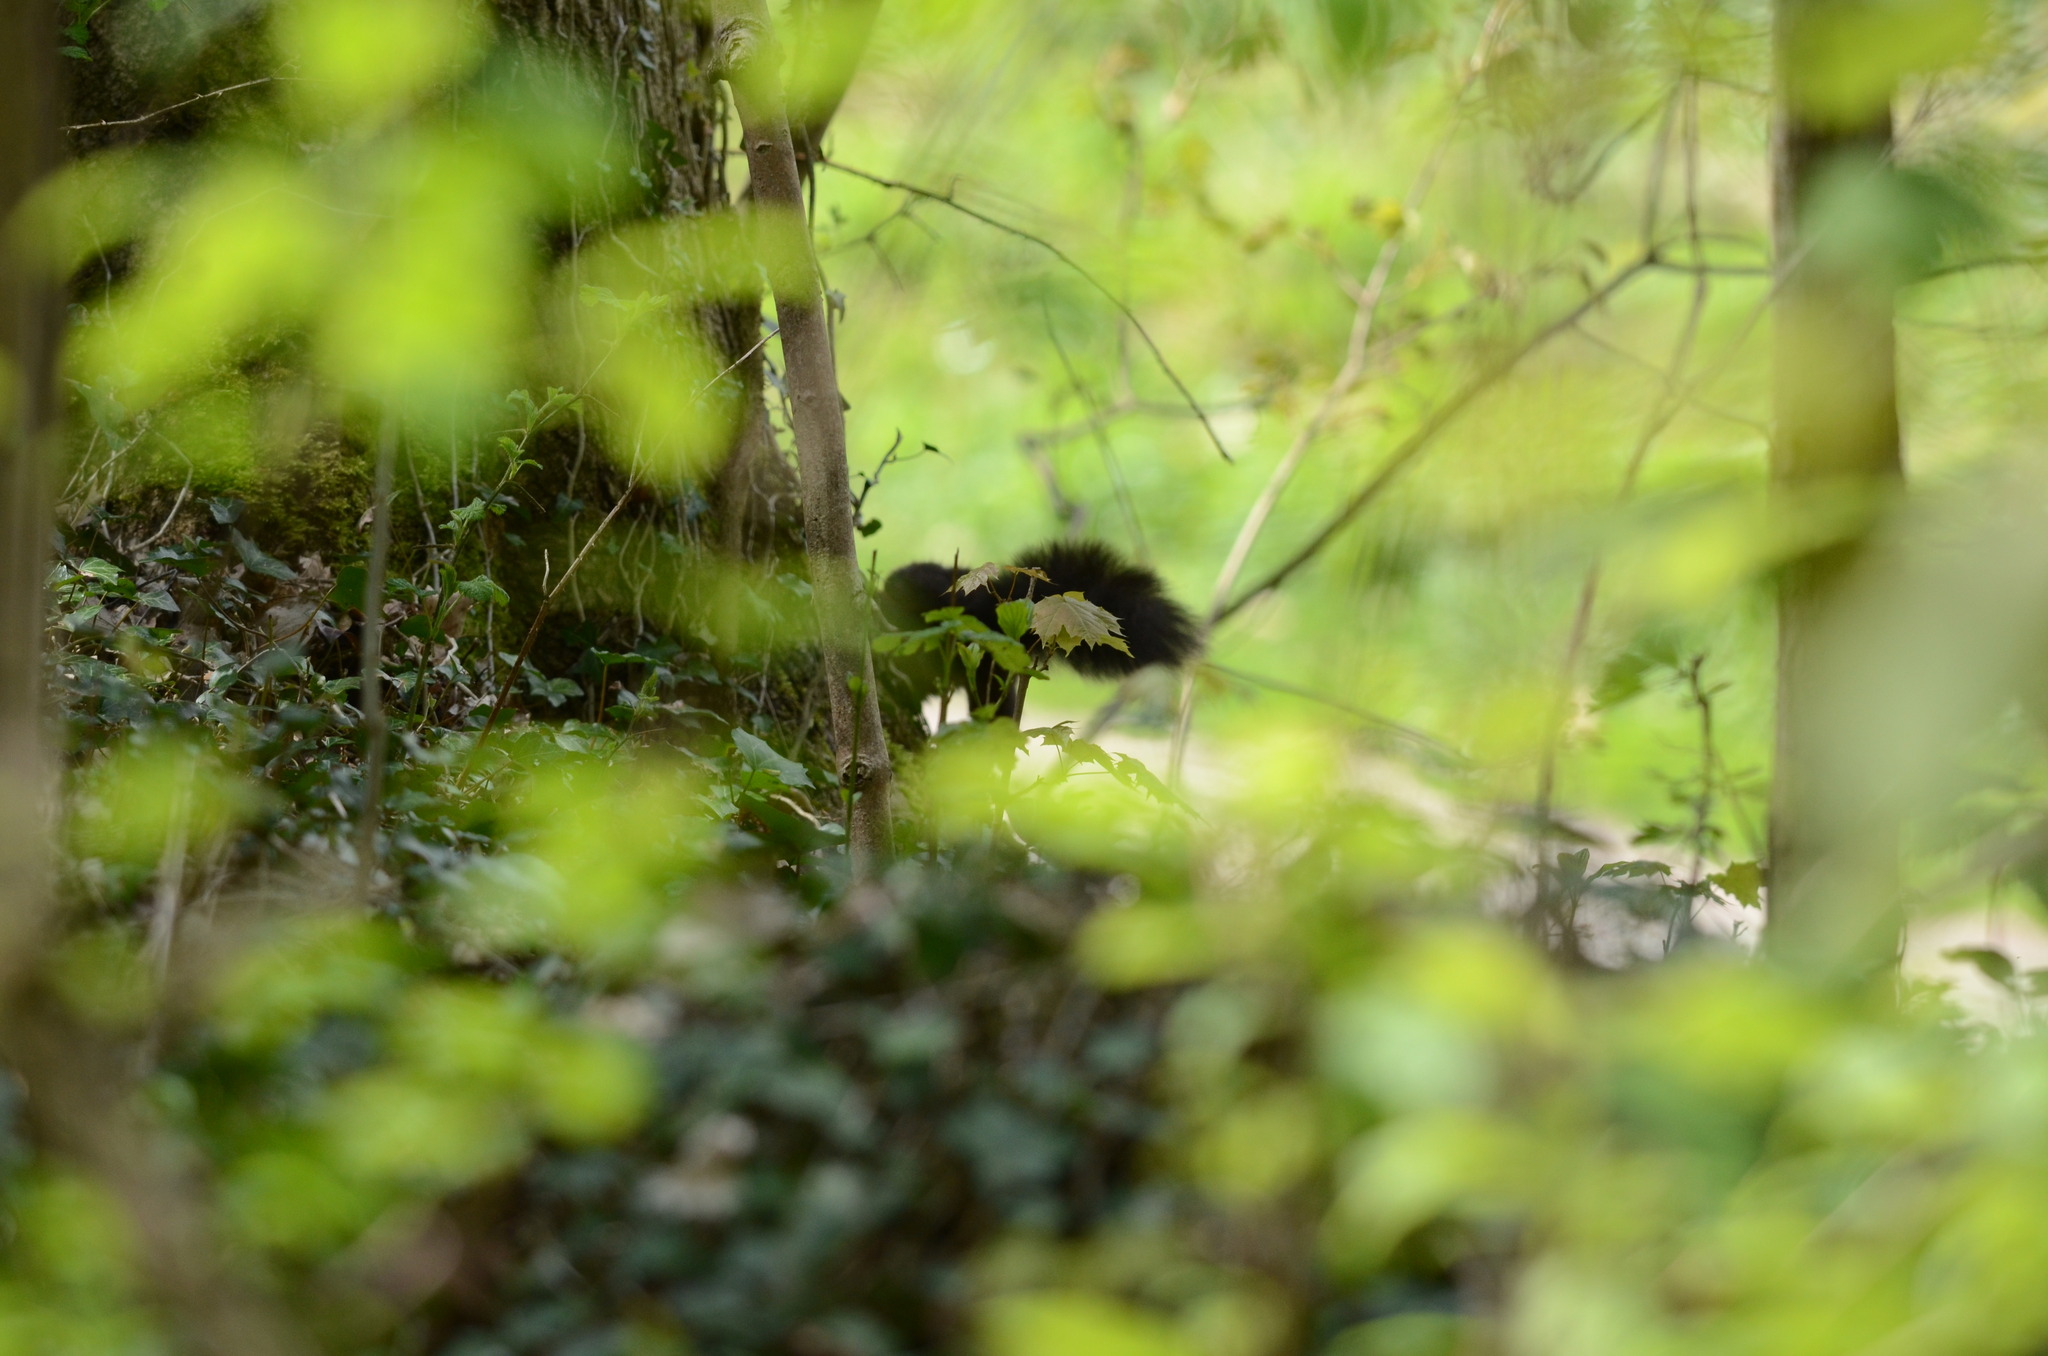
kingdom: Animalia
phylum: Chordata
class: Mammalia
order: Rodentia
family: Sciuridae
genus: Sciurus
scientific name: Sciurus vulgaris
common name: Eurasian red squirrel
